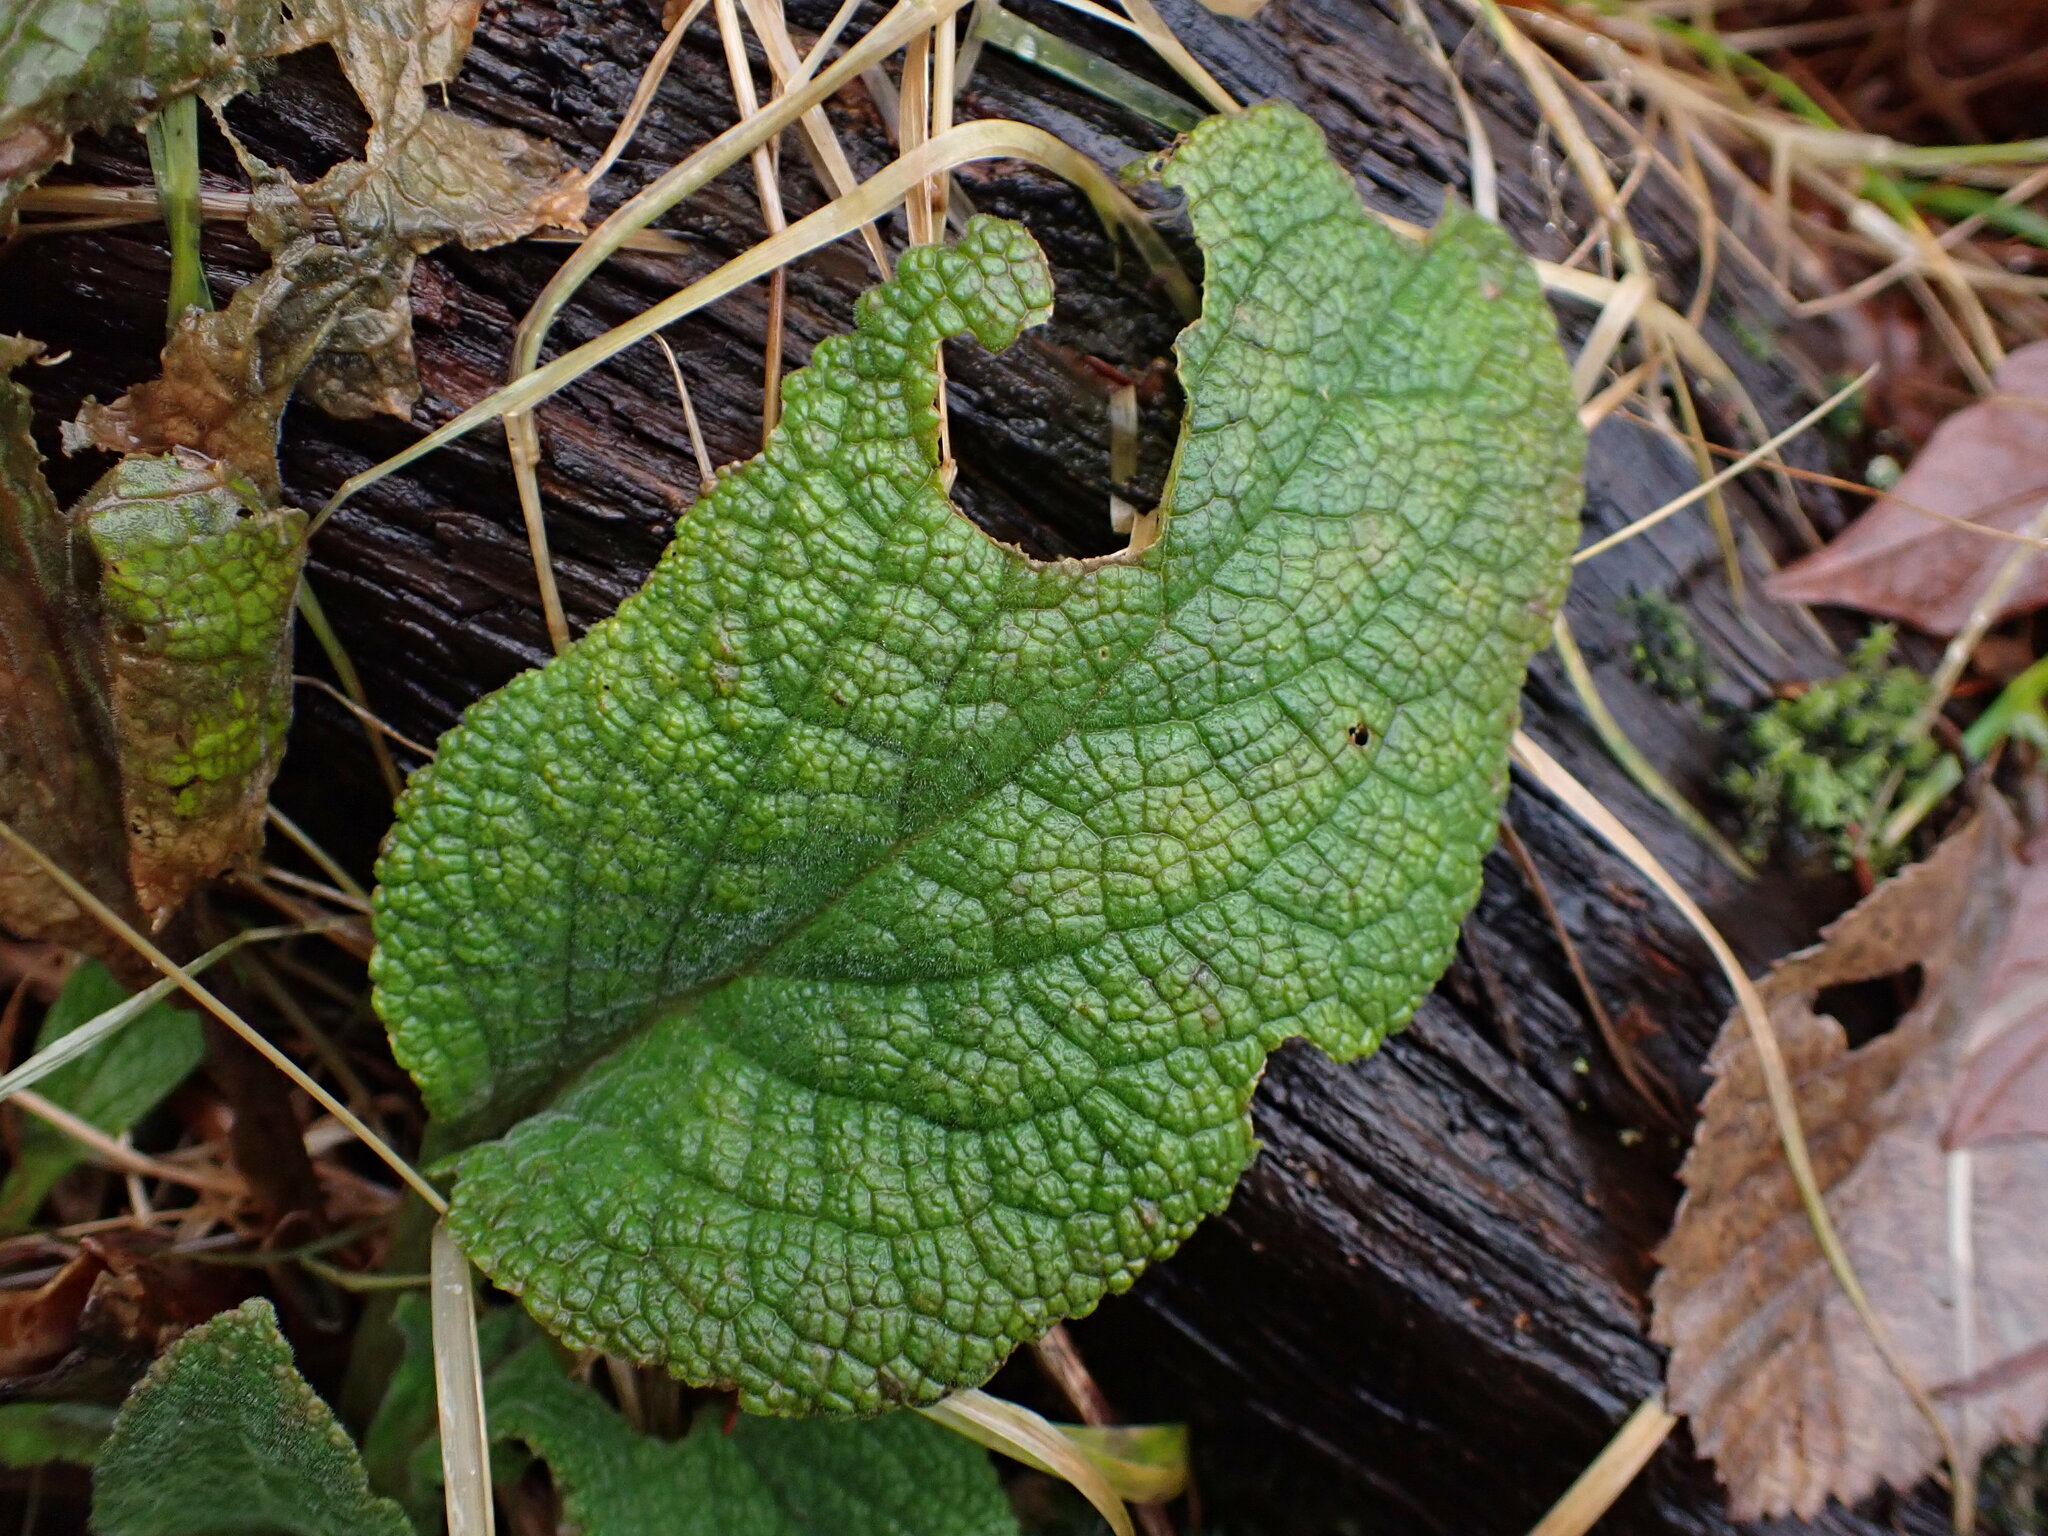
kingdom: Plantae
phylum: Tracheophyta
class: Magnoliopsida
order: Lamiales
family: Plantaginaceae
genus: Digitalis
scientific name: Digitalis purpurea
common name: Foxglove
